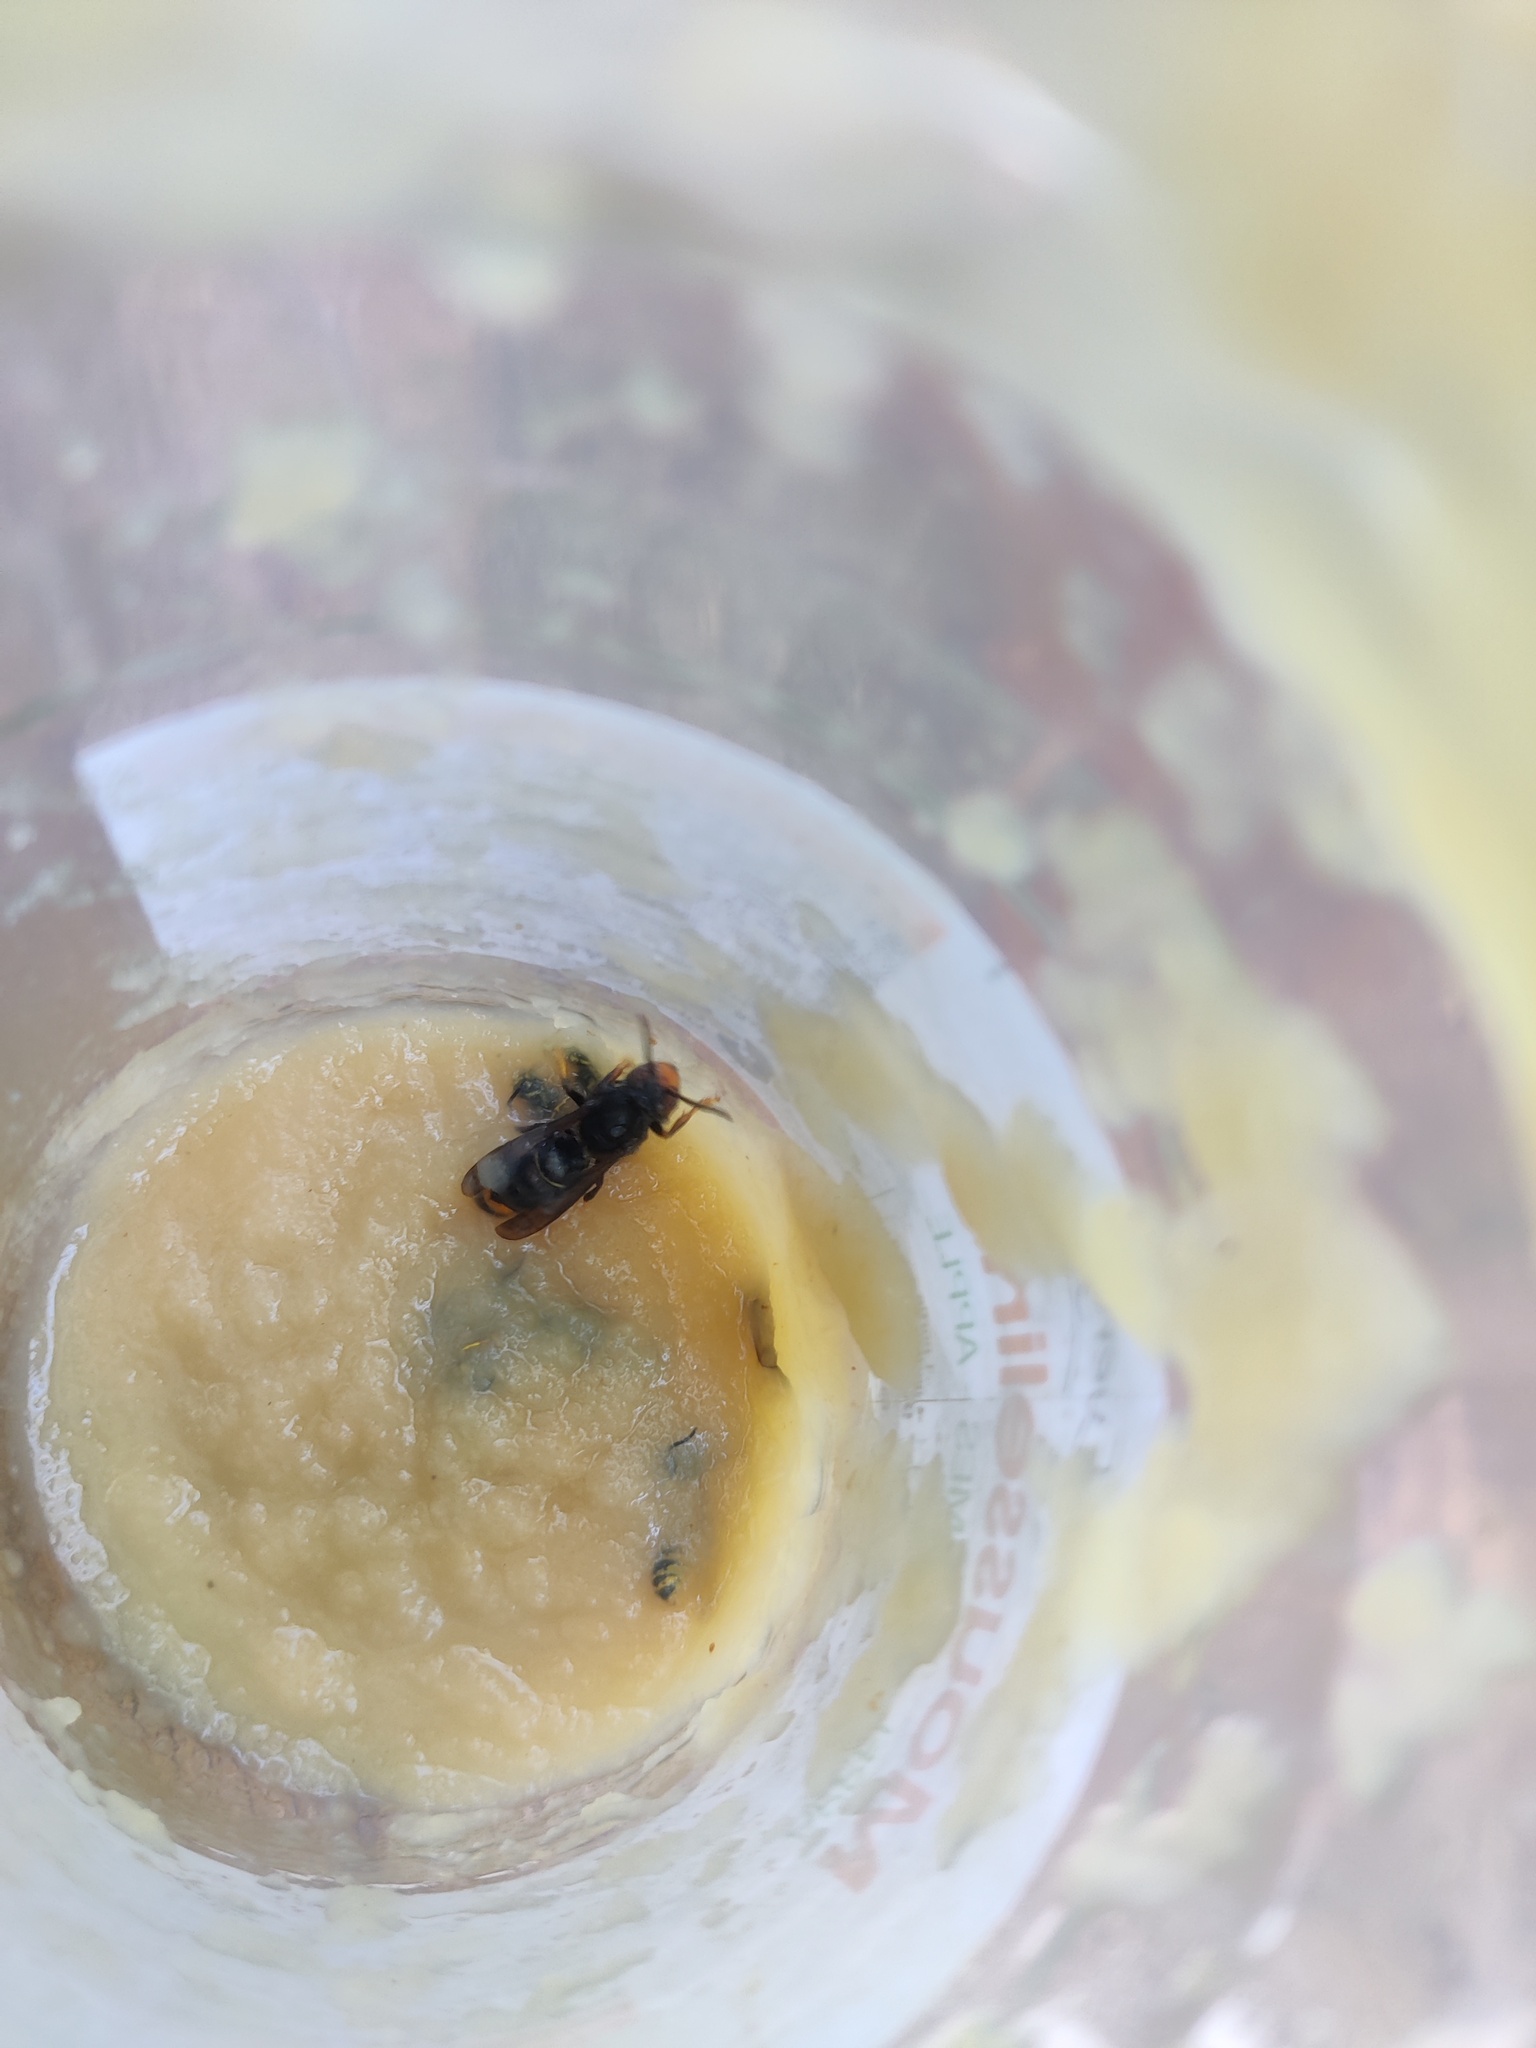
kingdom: Animalia
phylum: Arthropoda
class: Insecta
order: Hymenoptera
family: Vespidae
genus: Vespa
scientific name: Vespa velutina
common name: Asian hornet
